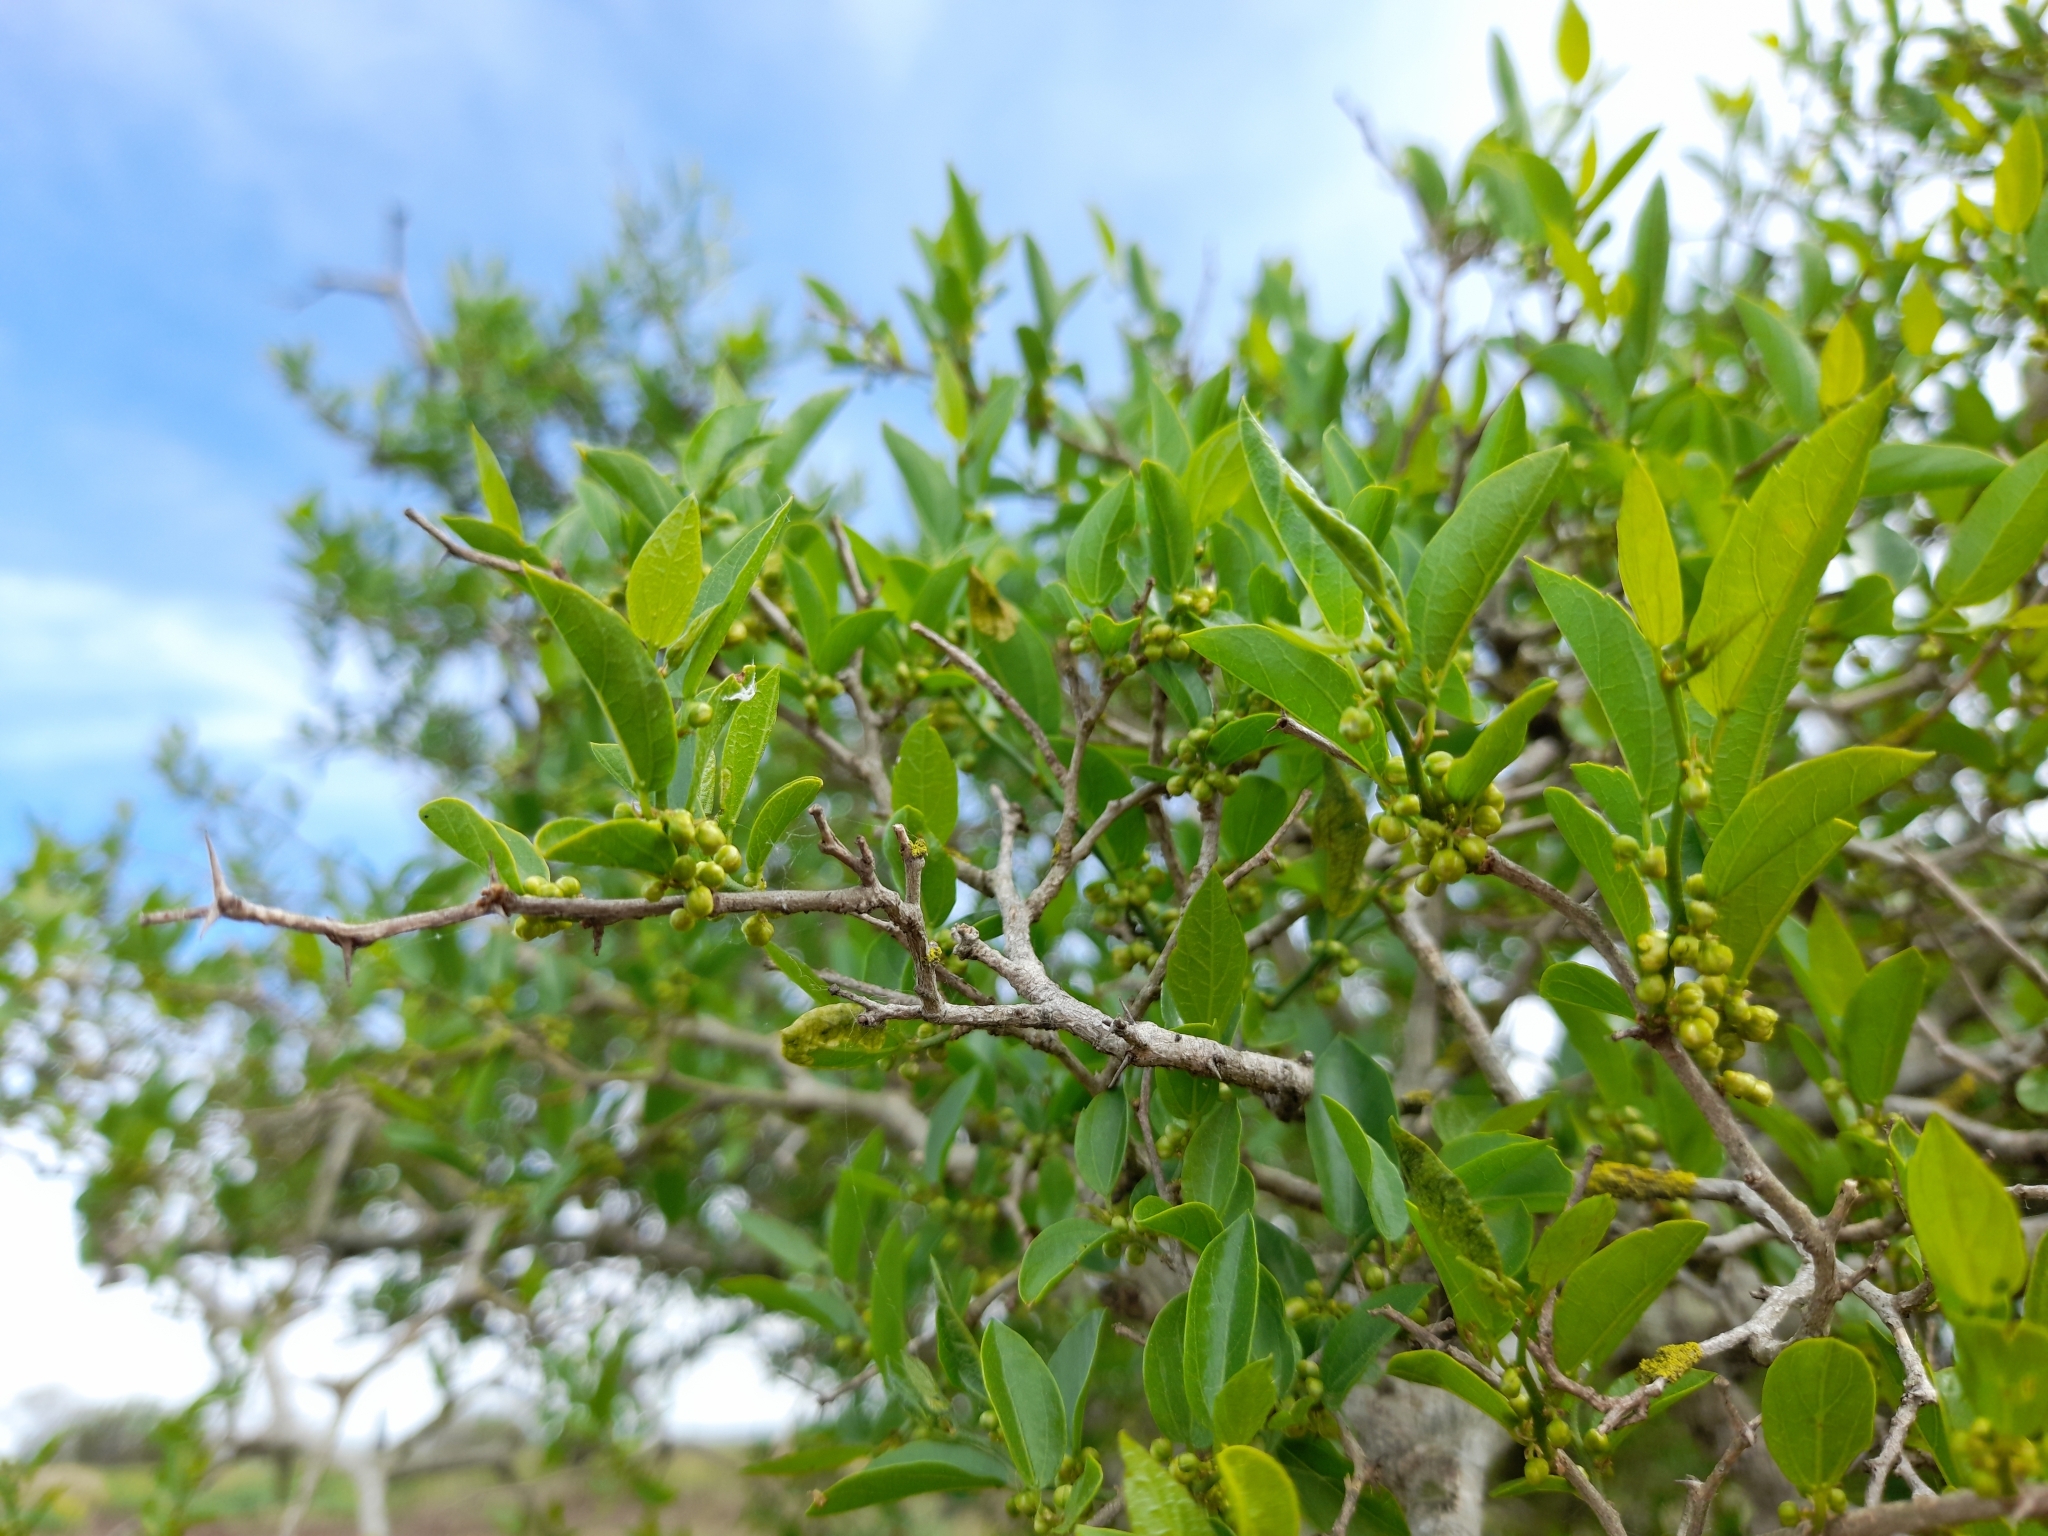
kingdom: Plantae
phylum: Tracheophyta
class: Magnoliopsida
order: Rosales
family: Cannabaceae
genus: Celtis
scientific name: Celtis tala
